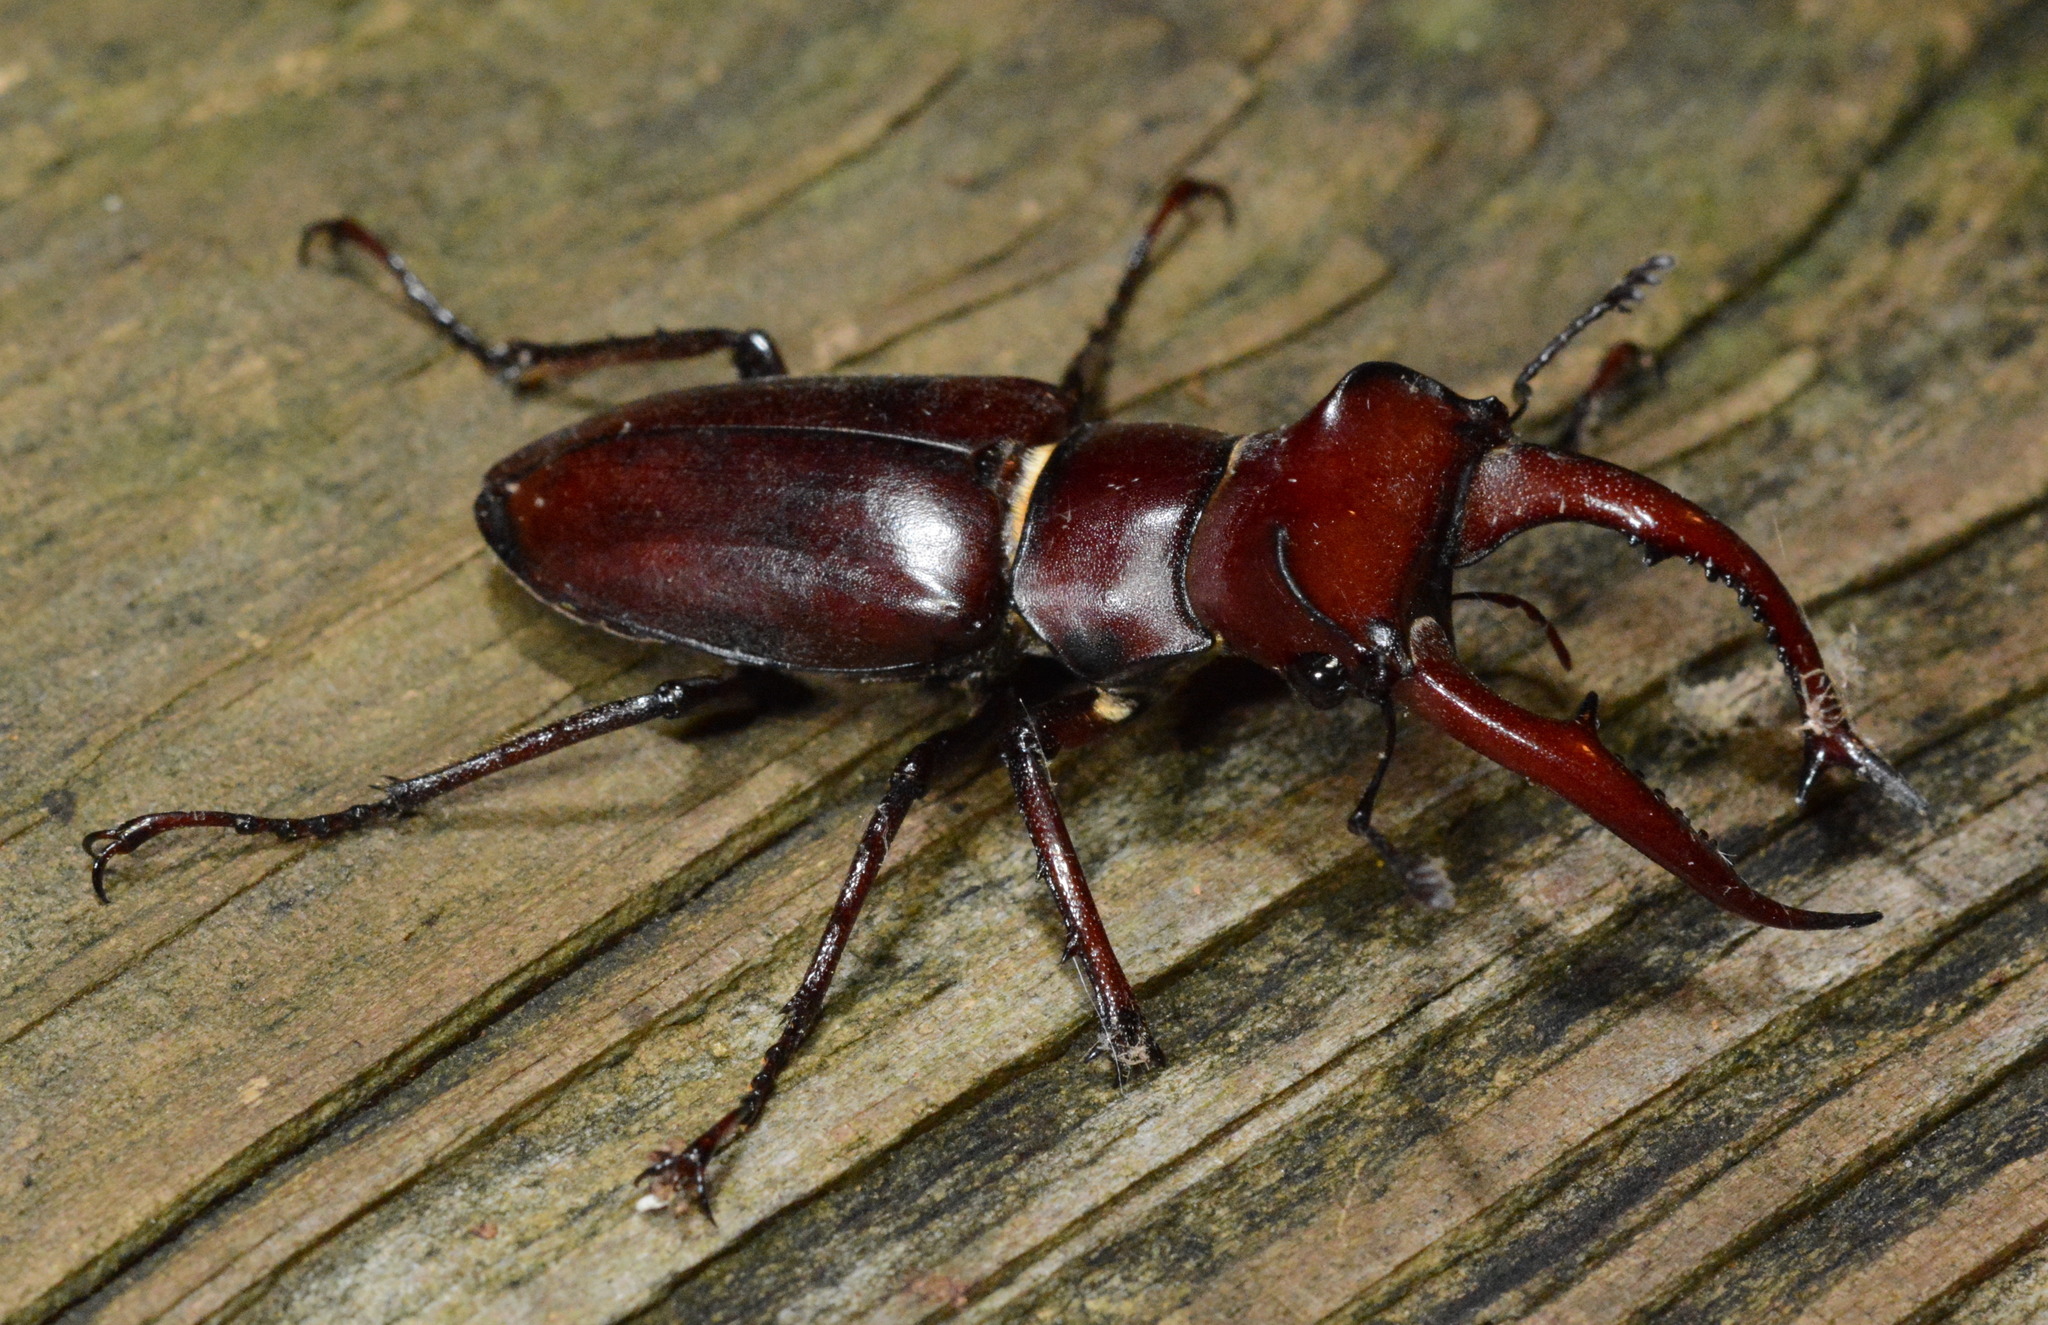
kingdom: Animalia
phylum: Arthropoda
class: Insecta
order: Coleoptera
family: Lucanidae
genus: Lucanus
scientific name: Lucanus elaphus
